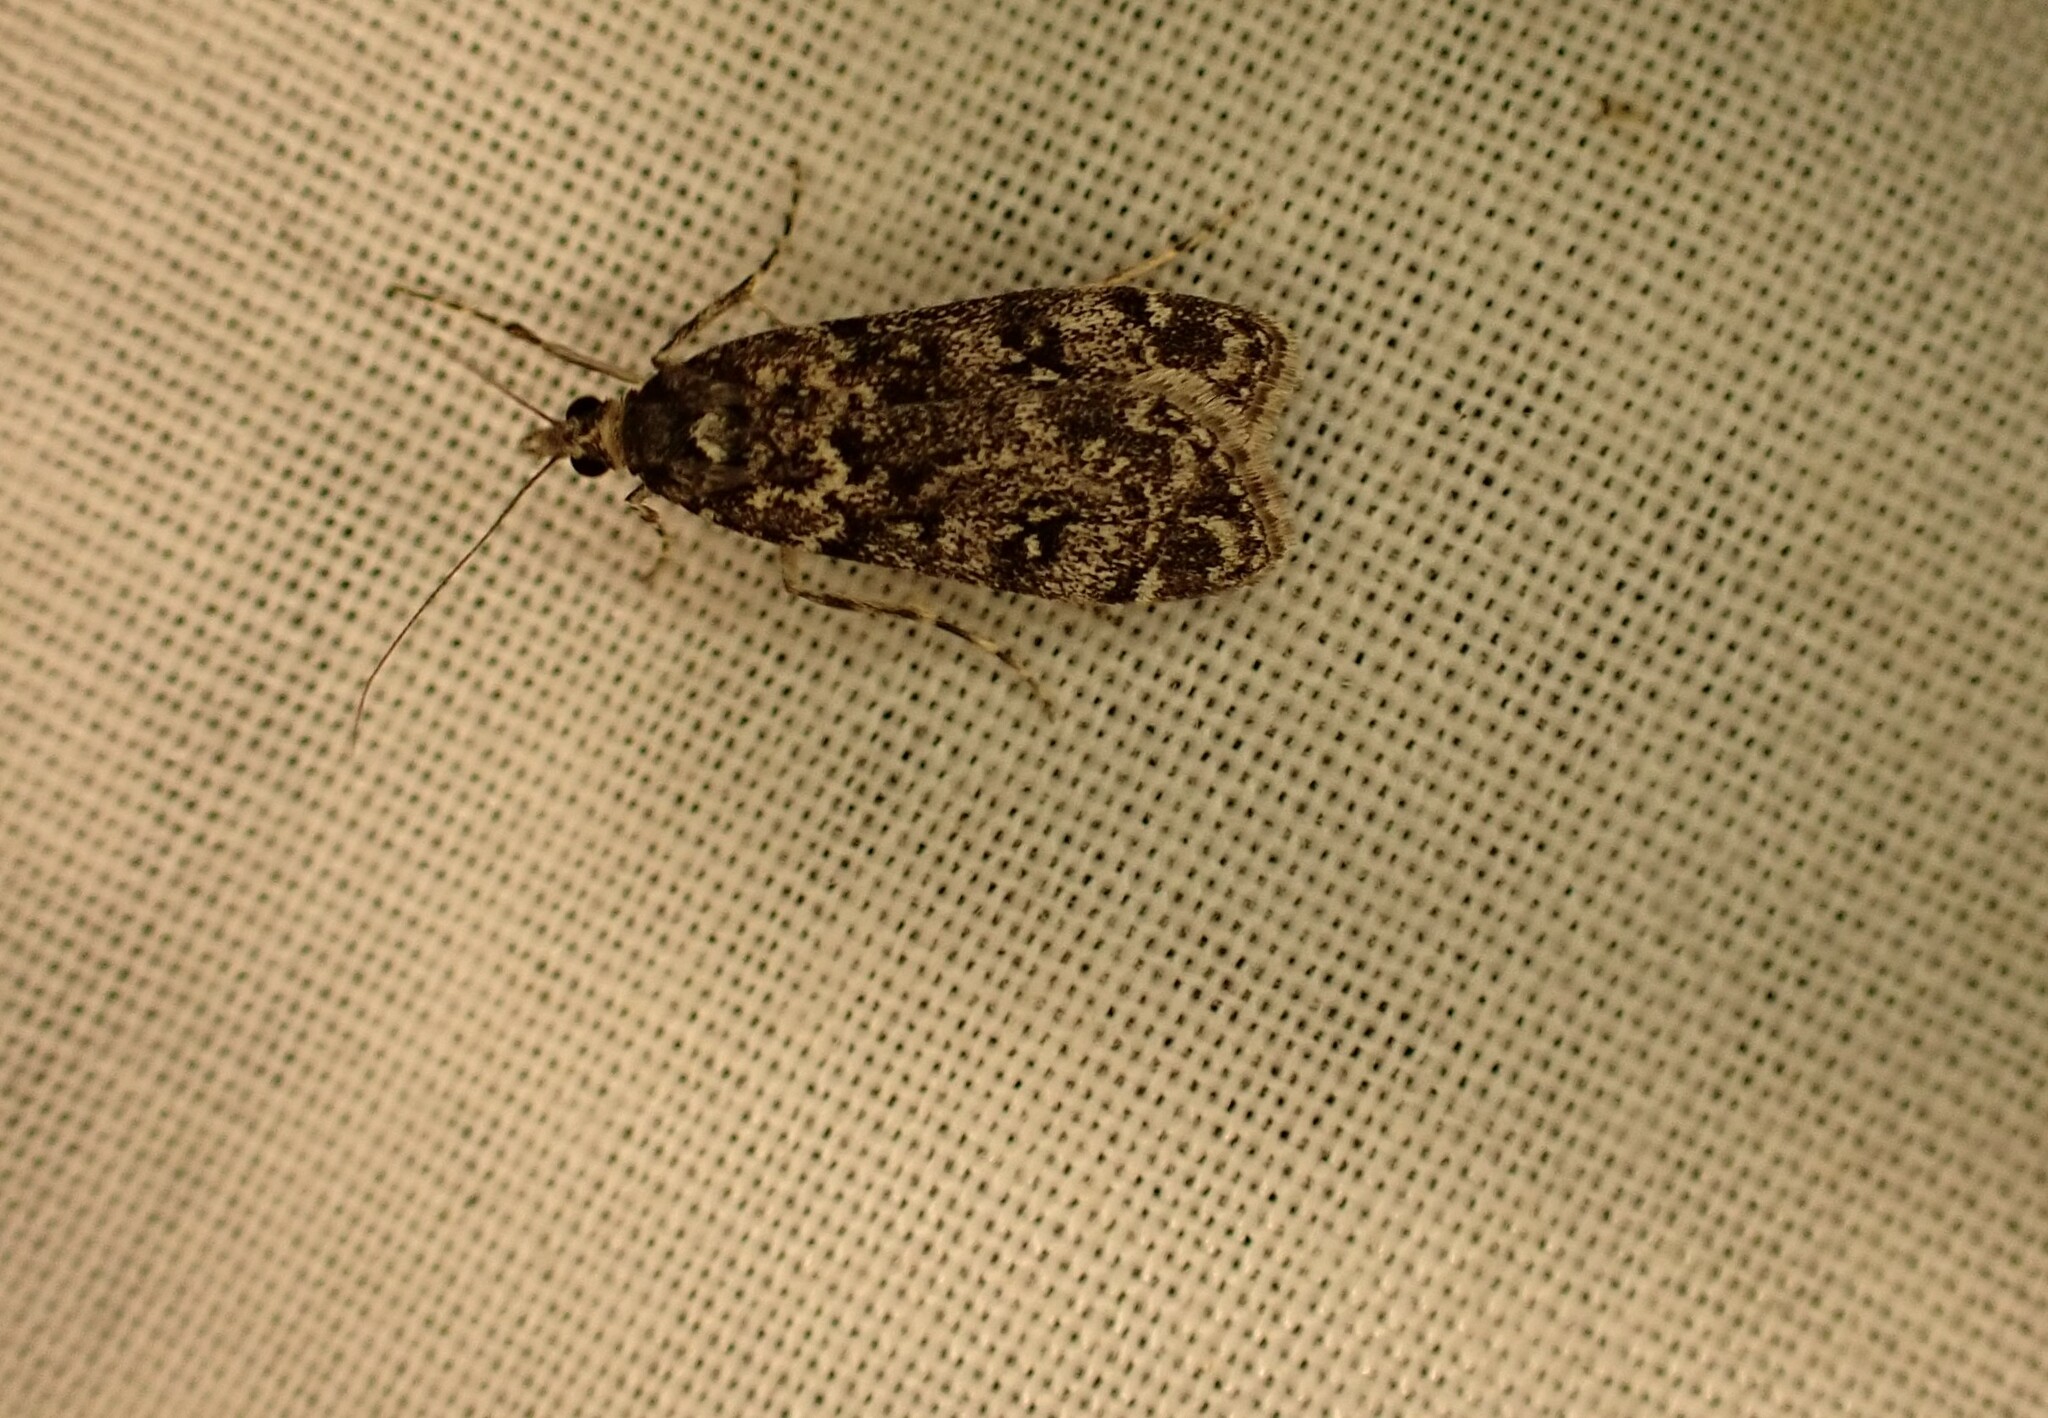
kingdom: Animalia
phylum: Arthropoda
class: Insecta
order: Lepidoptera
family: Crambidae
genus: Eudonia
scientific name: Eudonia philerga
